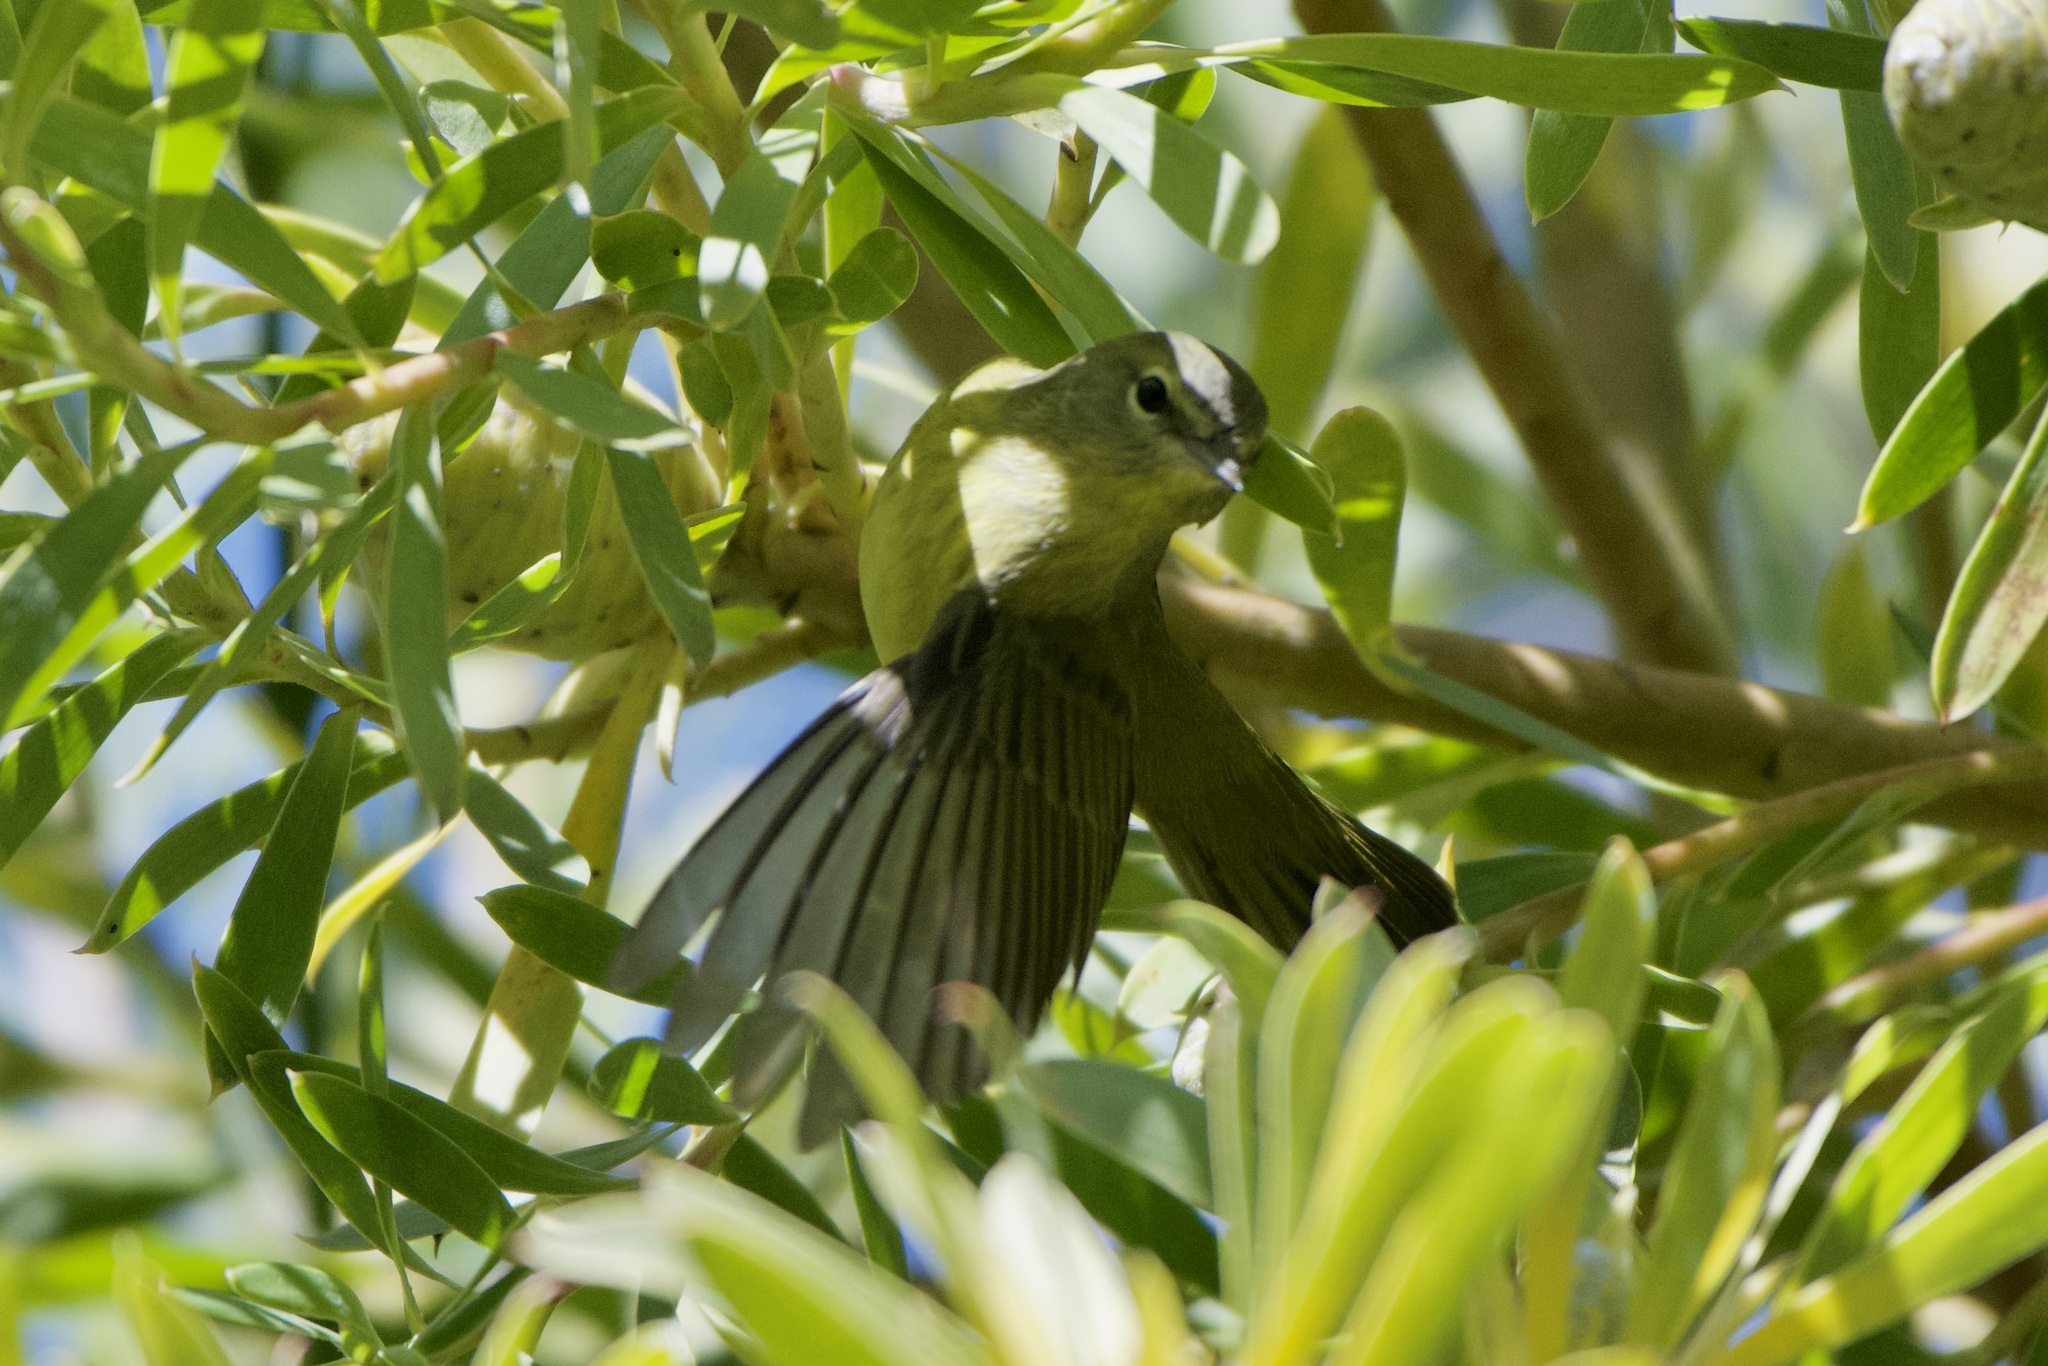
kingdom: Animalia
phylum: Chordata
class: Aves
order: Passeriformes
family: Parulidae
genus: Leiothlypis
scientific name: Leiothlypis celata
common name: Orange-crowned warbler
